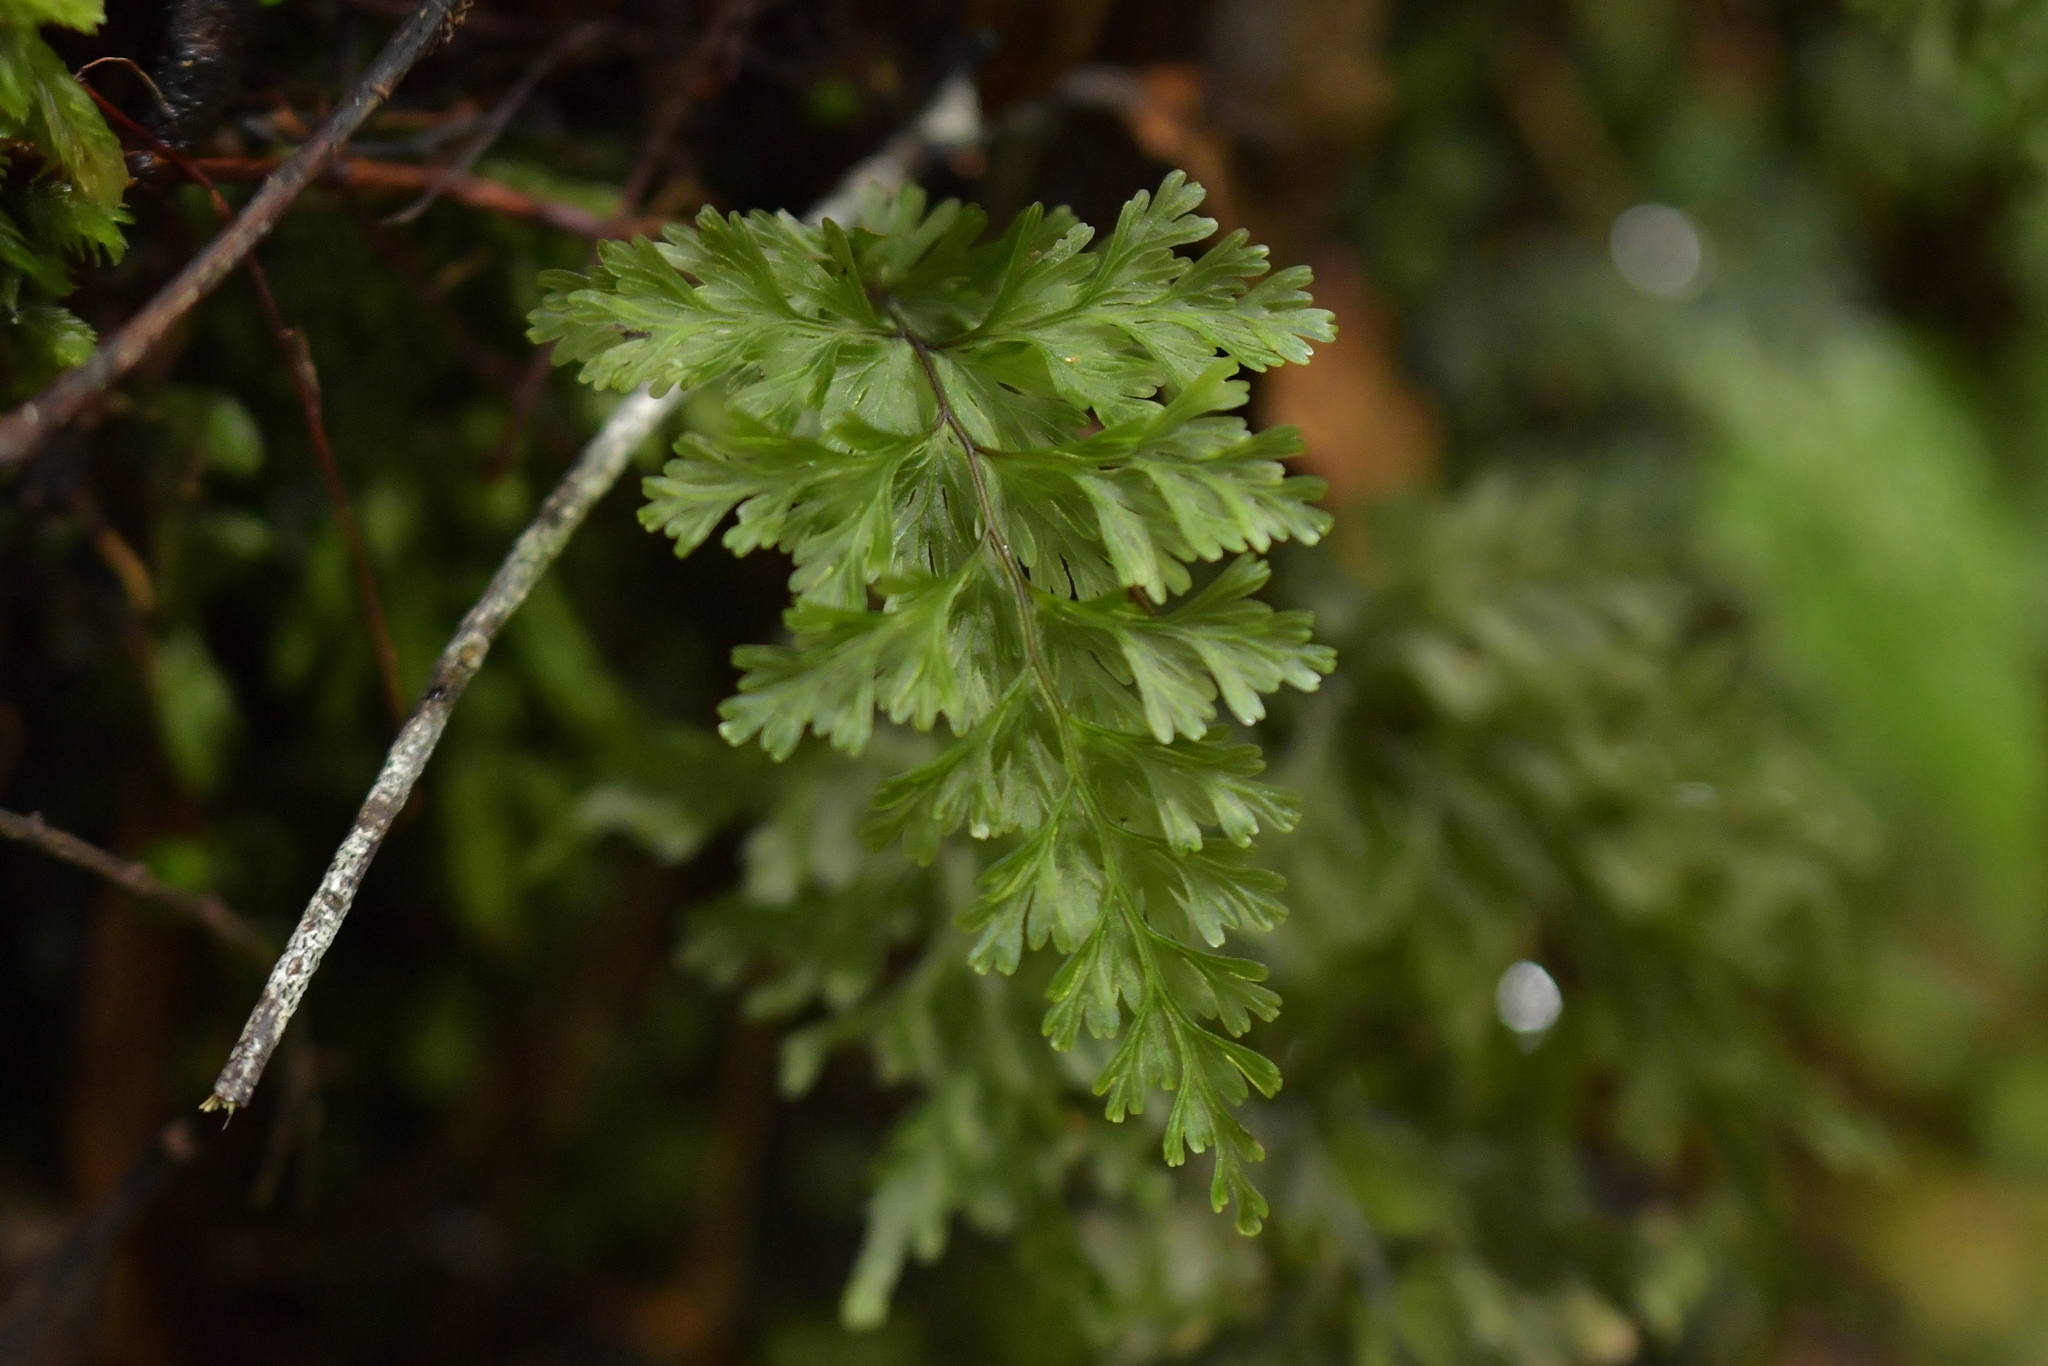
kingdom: Plantae
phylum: Tracheophyta
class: Polypodiopsida
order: Hymenophyllales
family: Hymenophyllaceae
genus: Hymenophyllum
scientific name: Hymenophyllum demissum
